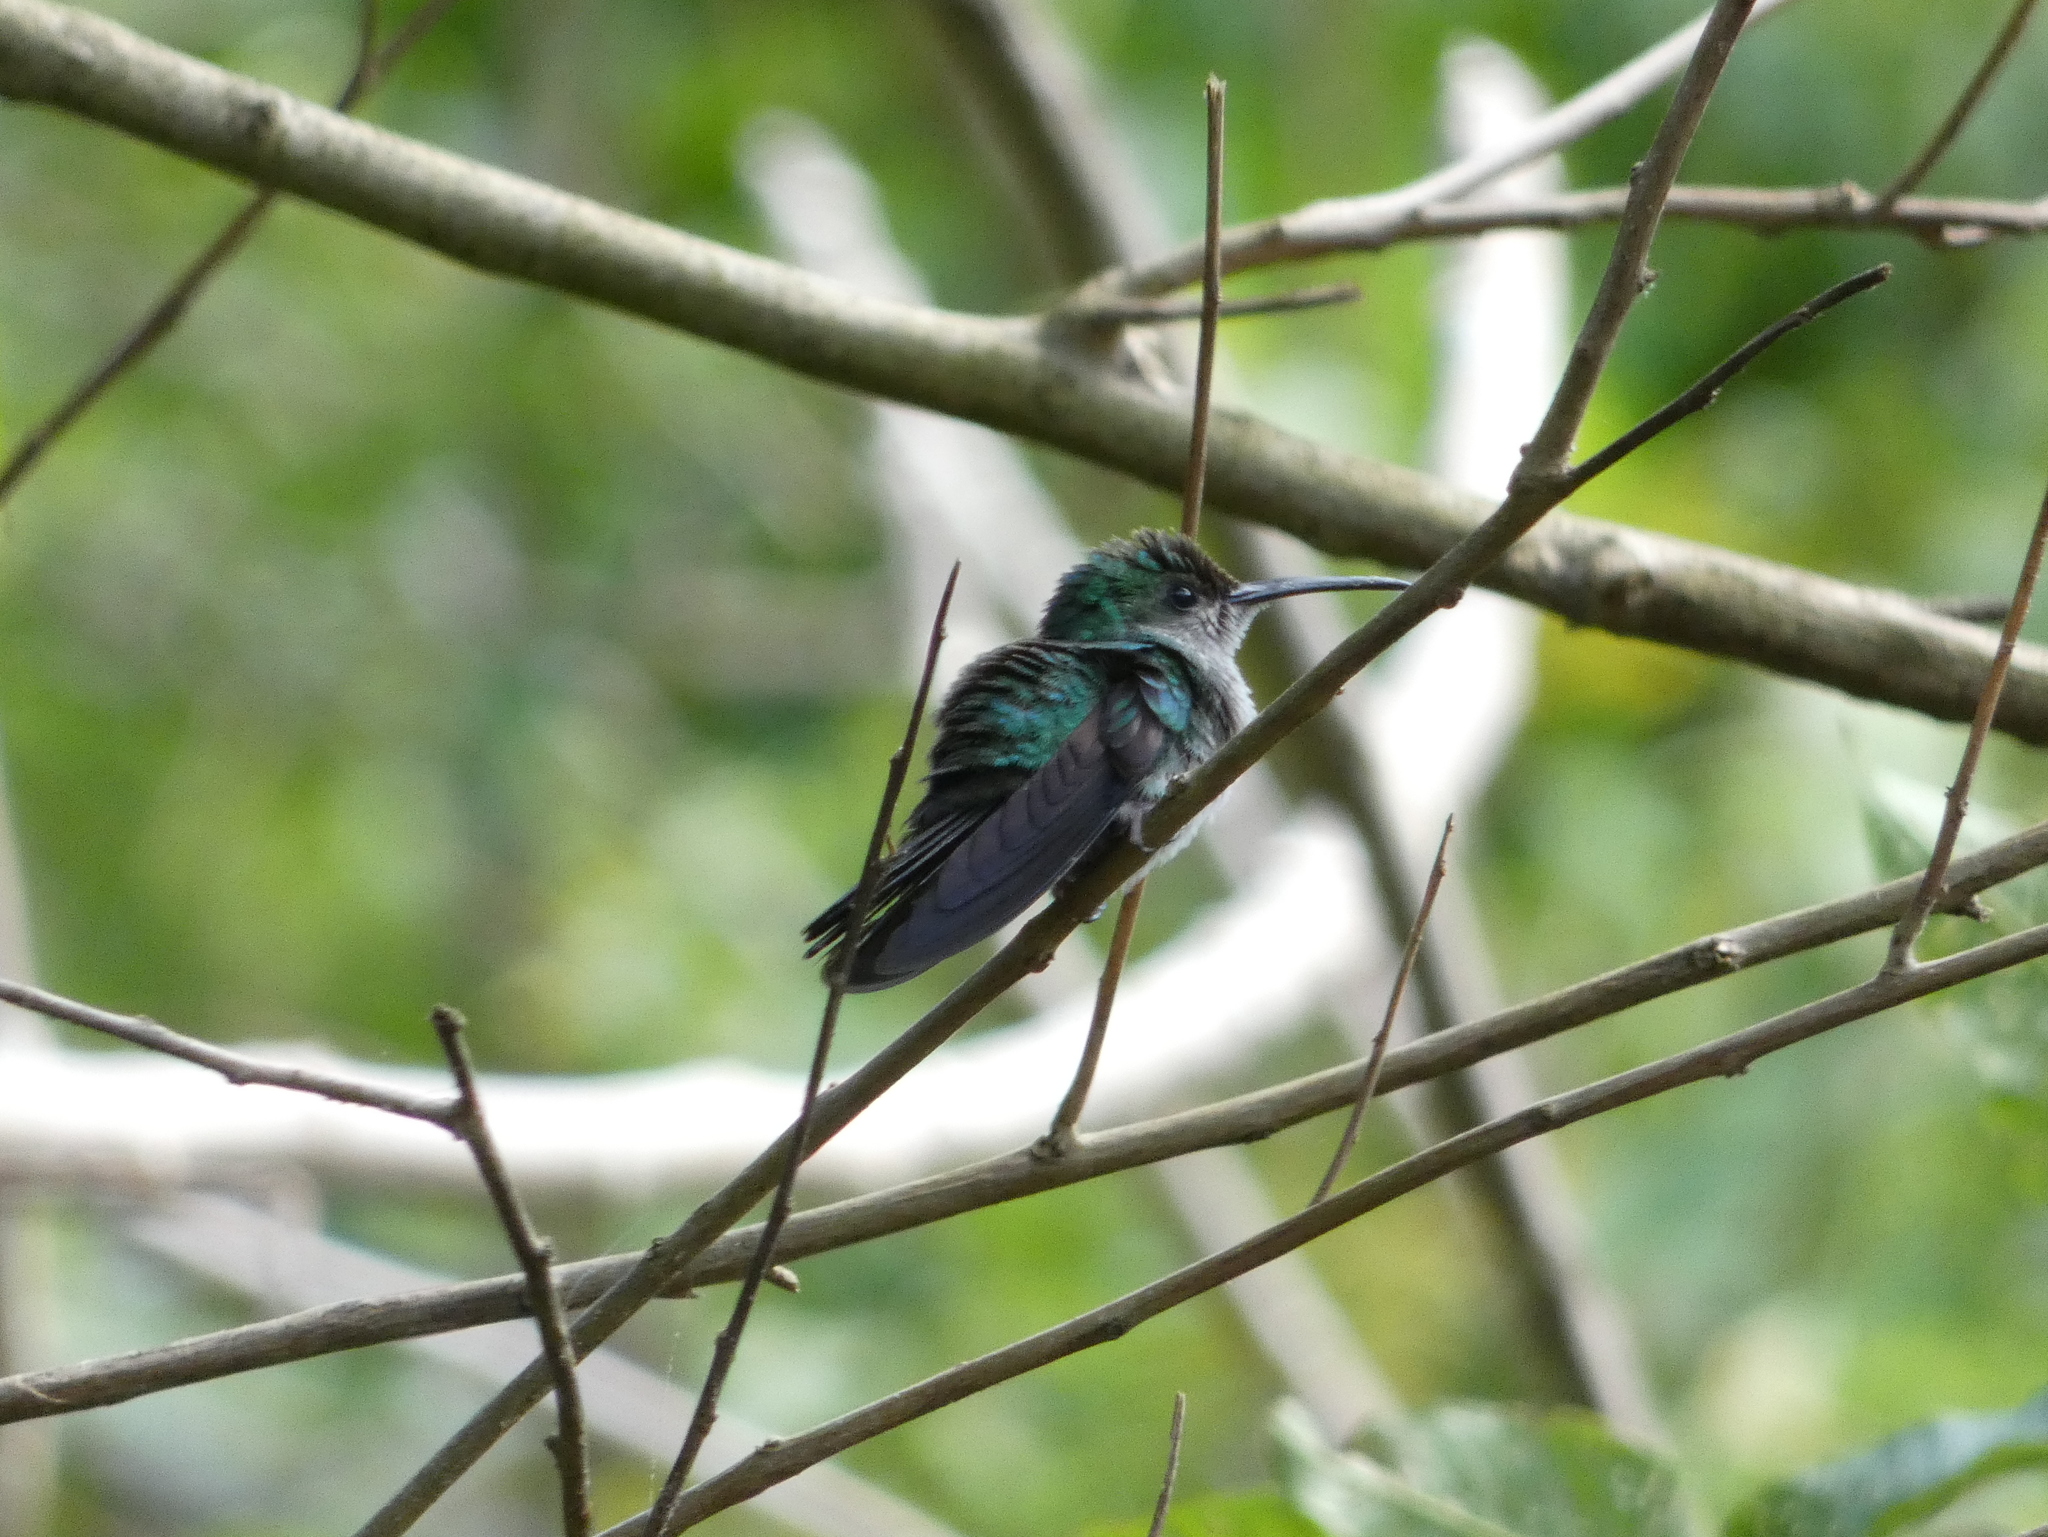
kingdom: Animalia
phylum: Chordata
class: Aves
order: Apodiformes
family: Trochilidae
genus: Thalurania
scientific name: Thalurania colombica
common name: Crowned woodnymph
